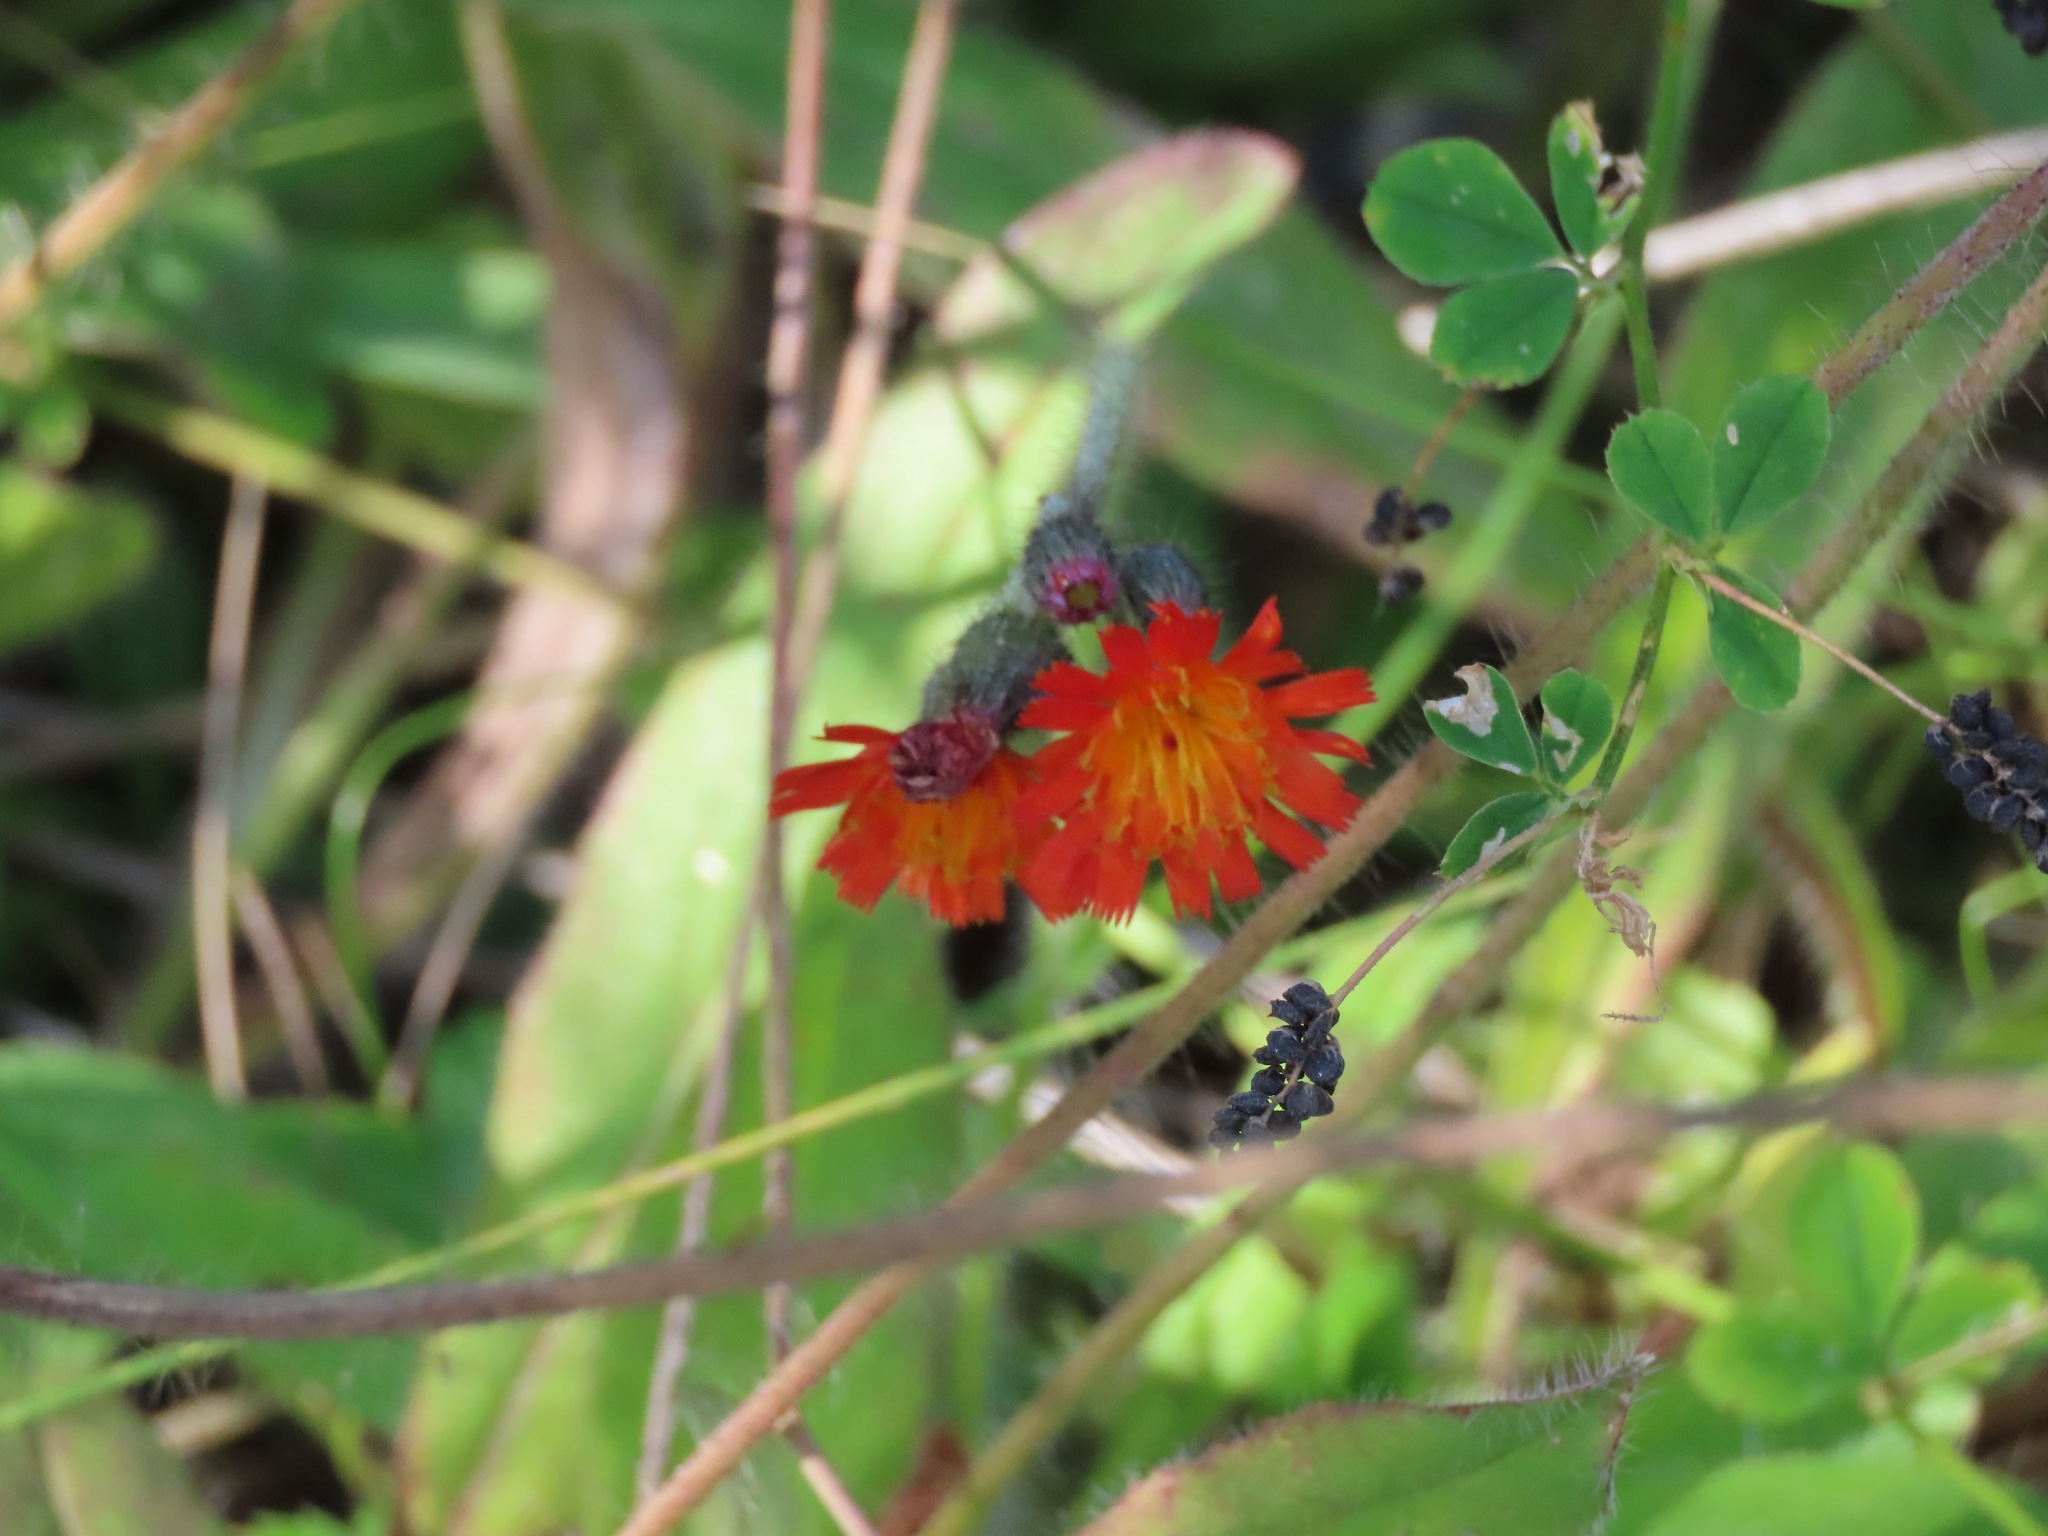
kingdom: Plantae
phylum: Tracheophyta
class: Magnoliopsida
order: Asterales
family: Asteraceae
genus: Pilosella
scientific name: Pilosella aurantiaca
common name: Fox-and-cubs
